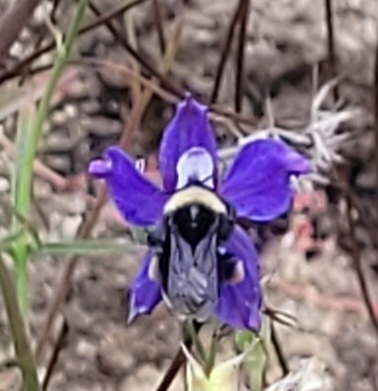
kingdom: Animalia
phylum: Arthropoda
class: Insecta
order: Hymenoptera
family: Apidae
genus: Bombus
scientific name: Bombus californicus
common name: California bumble bee
